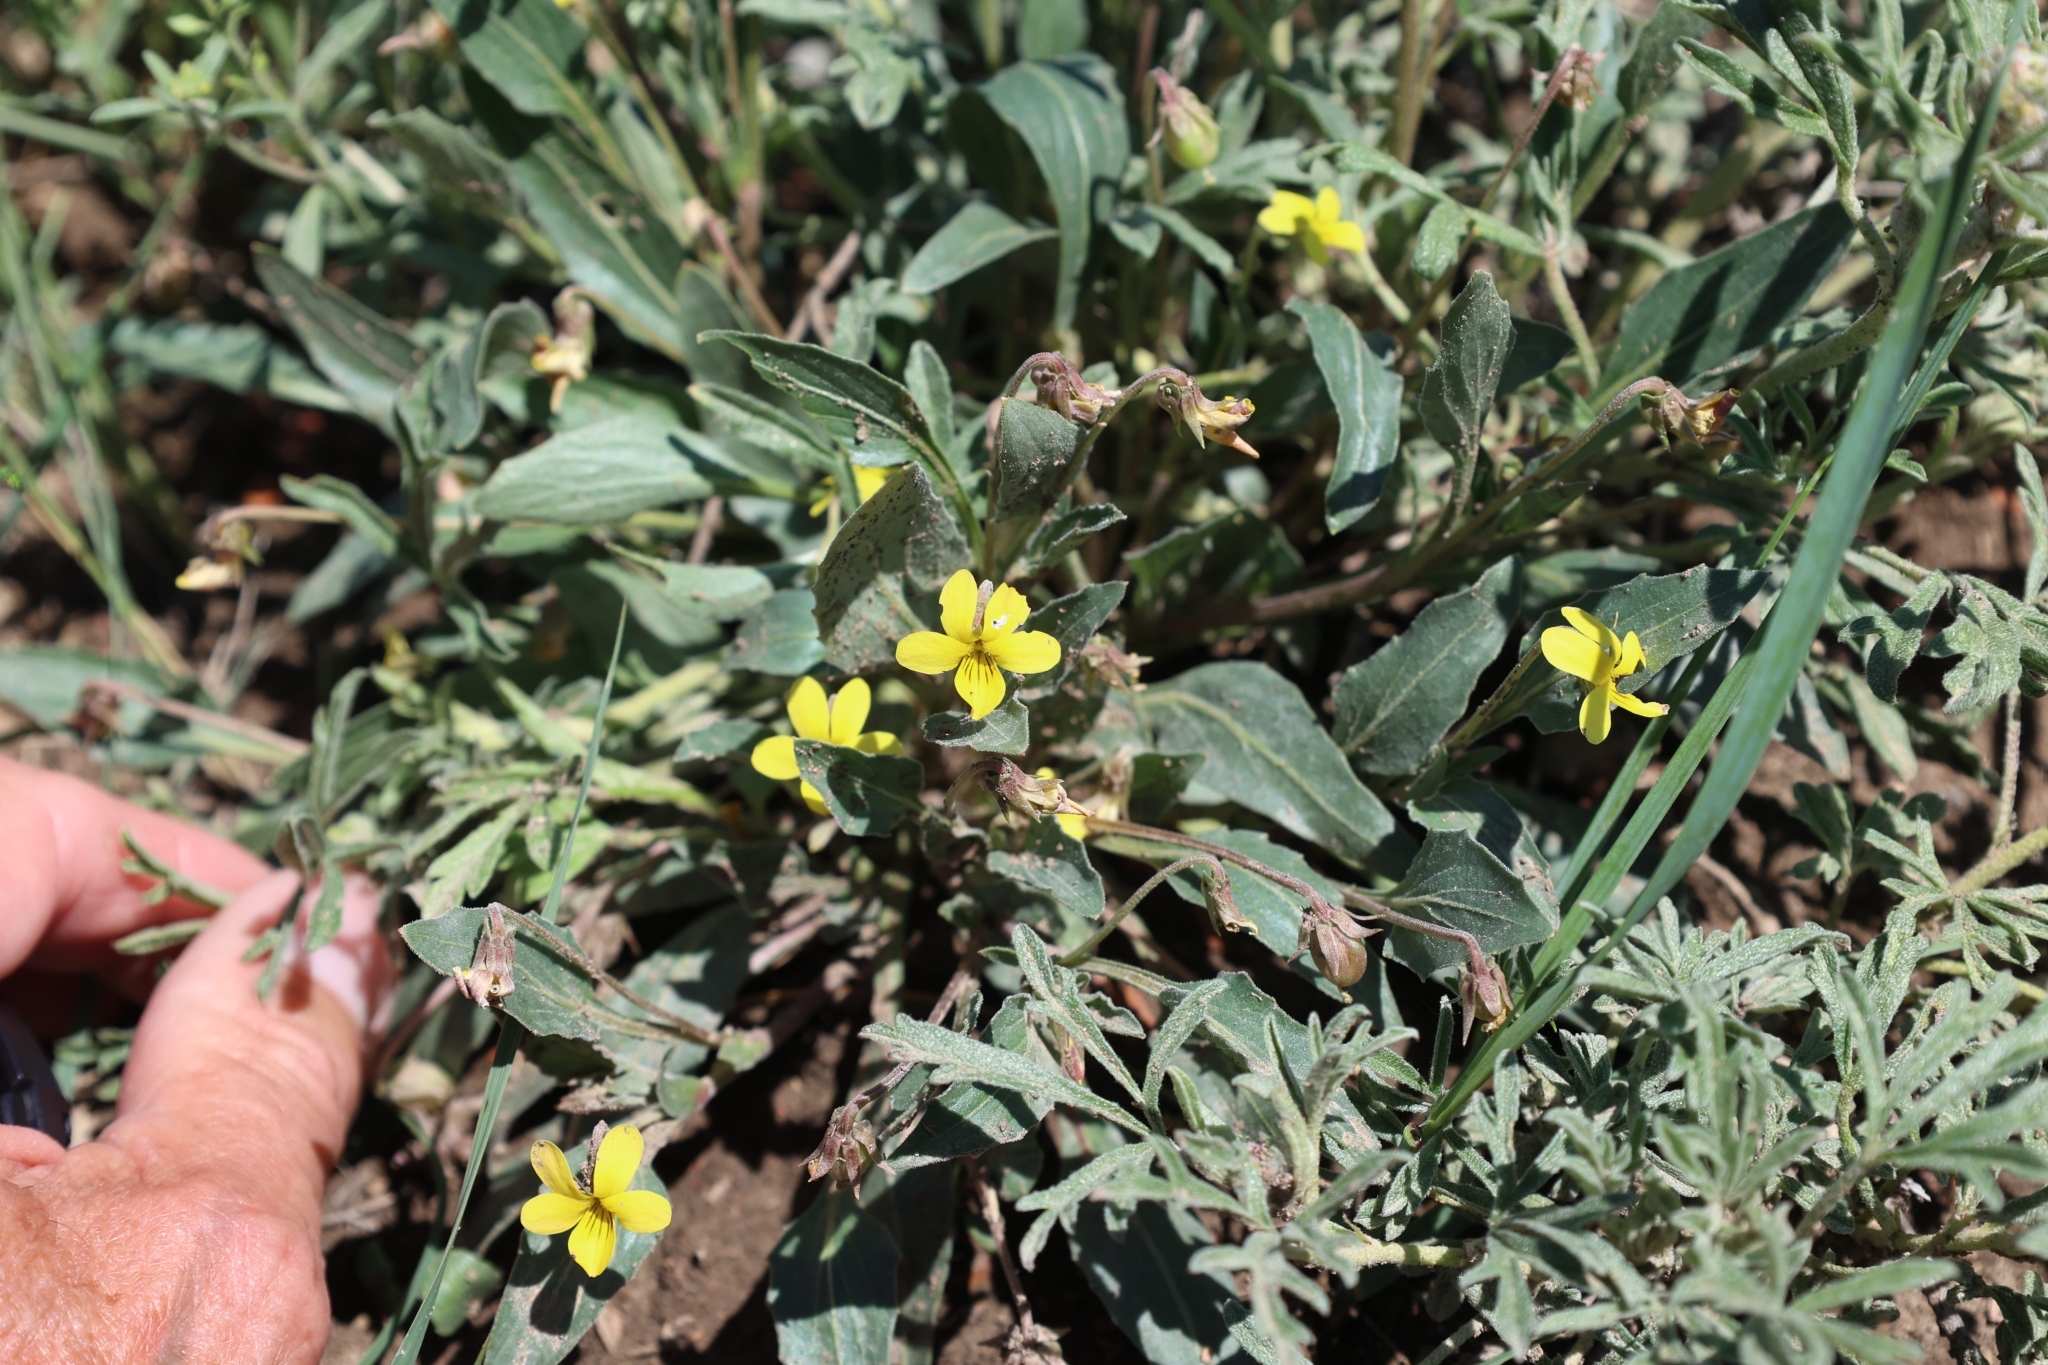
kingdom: Plantae
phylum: Tracheophyta
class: Magnoliopsida
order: Malpighiales
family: Violaceae
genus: Viola
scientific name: Viola nuttallii
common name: Yellow prairie violet
